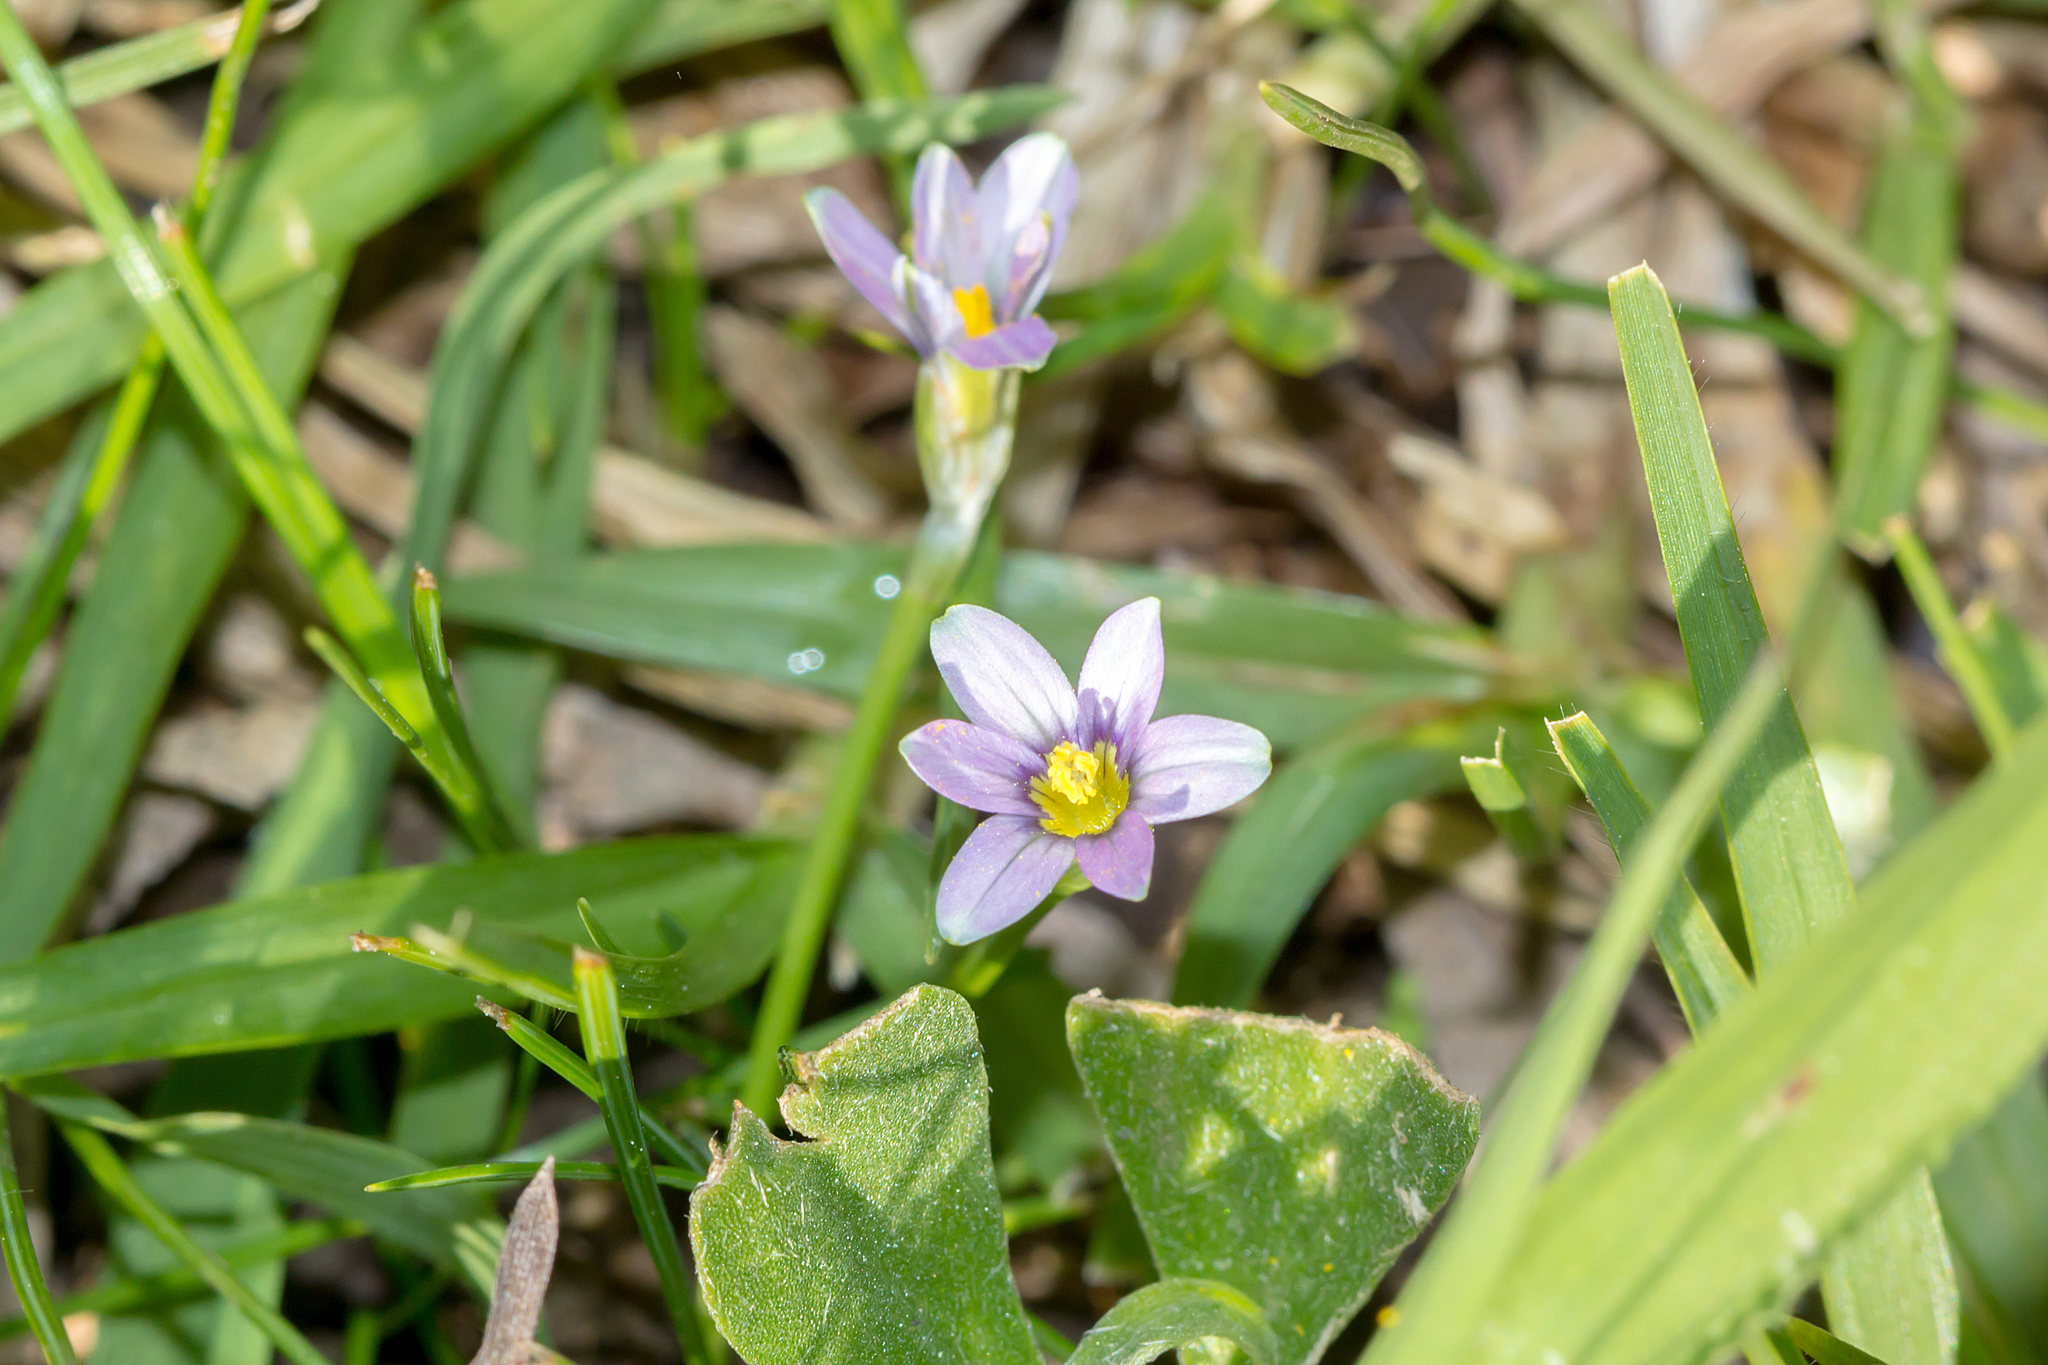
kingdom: Plantae
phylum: Tracheophyta
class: Liliopsida
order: Asparagales
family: Iridaceae
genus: Romulea
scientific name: Romulea minutiflora
